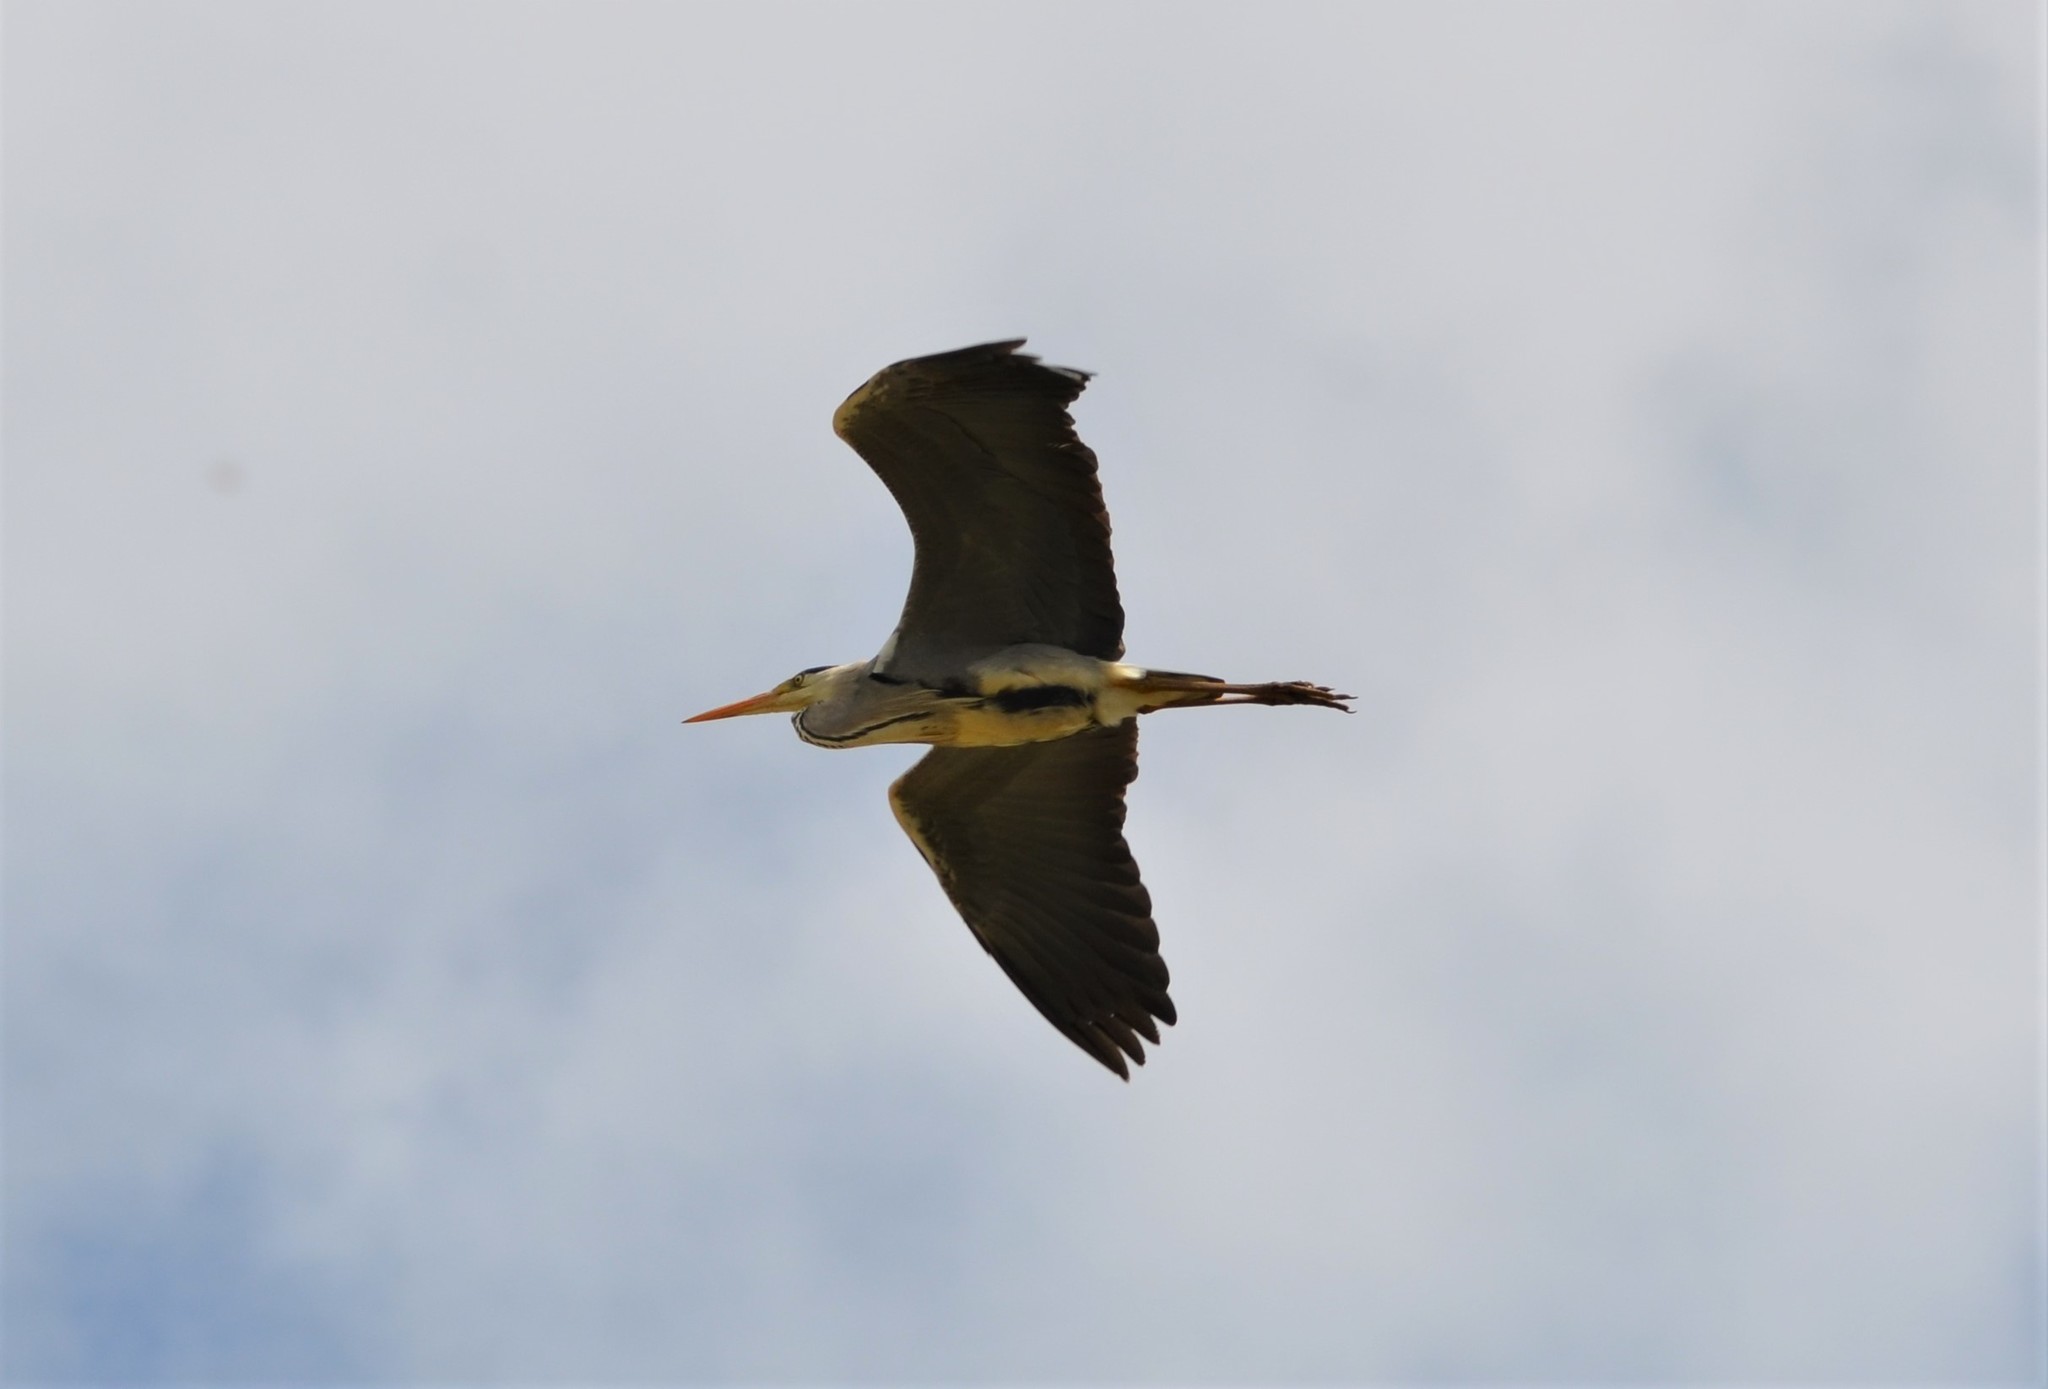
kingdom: Animalia
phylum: Chordata
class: Aves
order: Pelecaniformes
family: Ardeidae
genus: Ardea
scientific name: Ardea cinerea
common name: Grey heron
